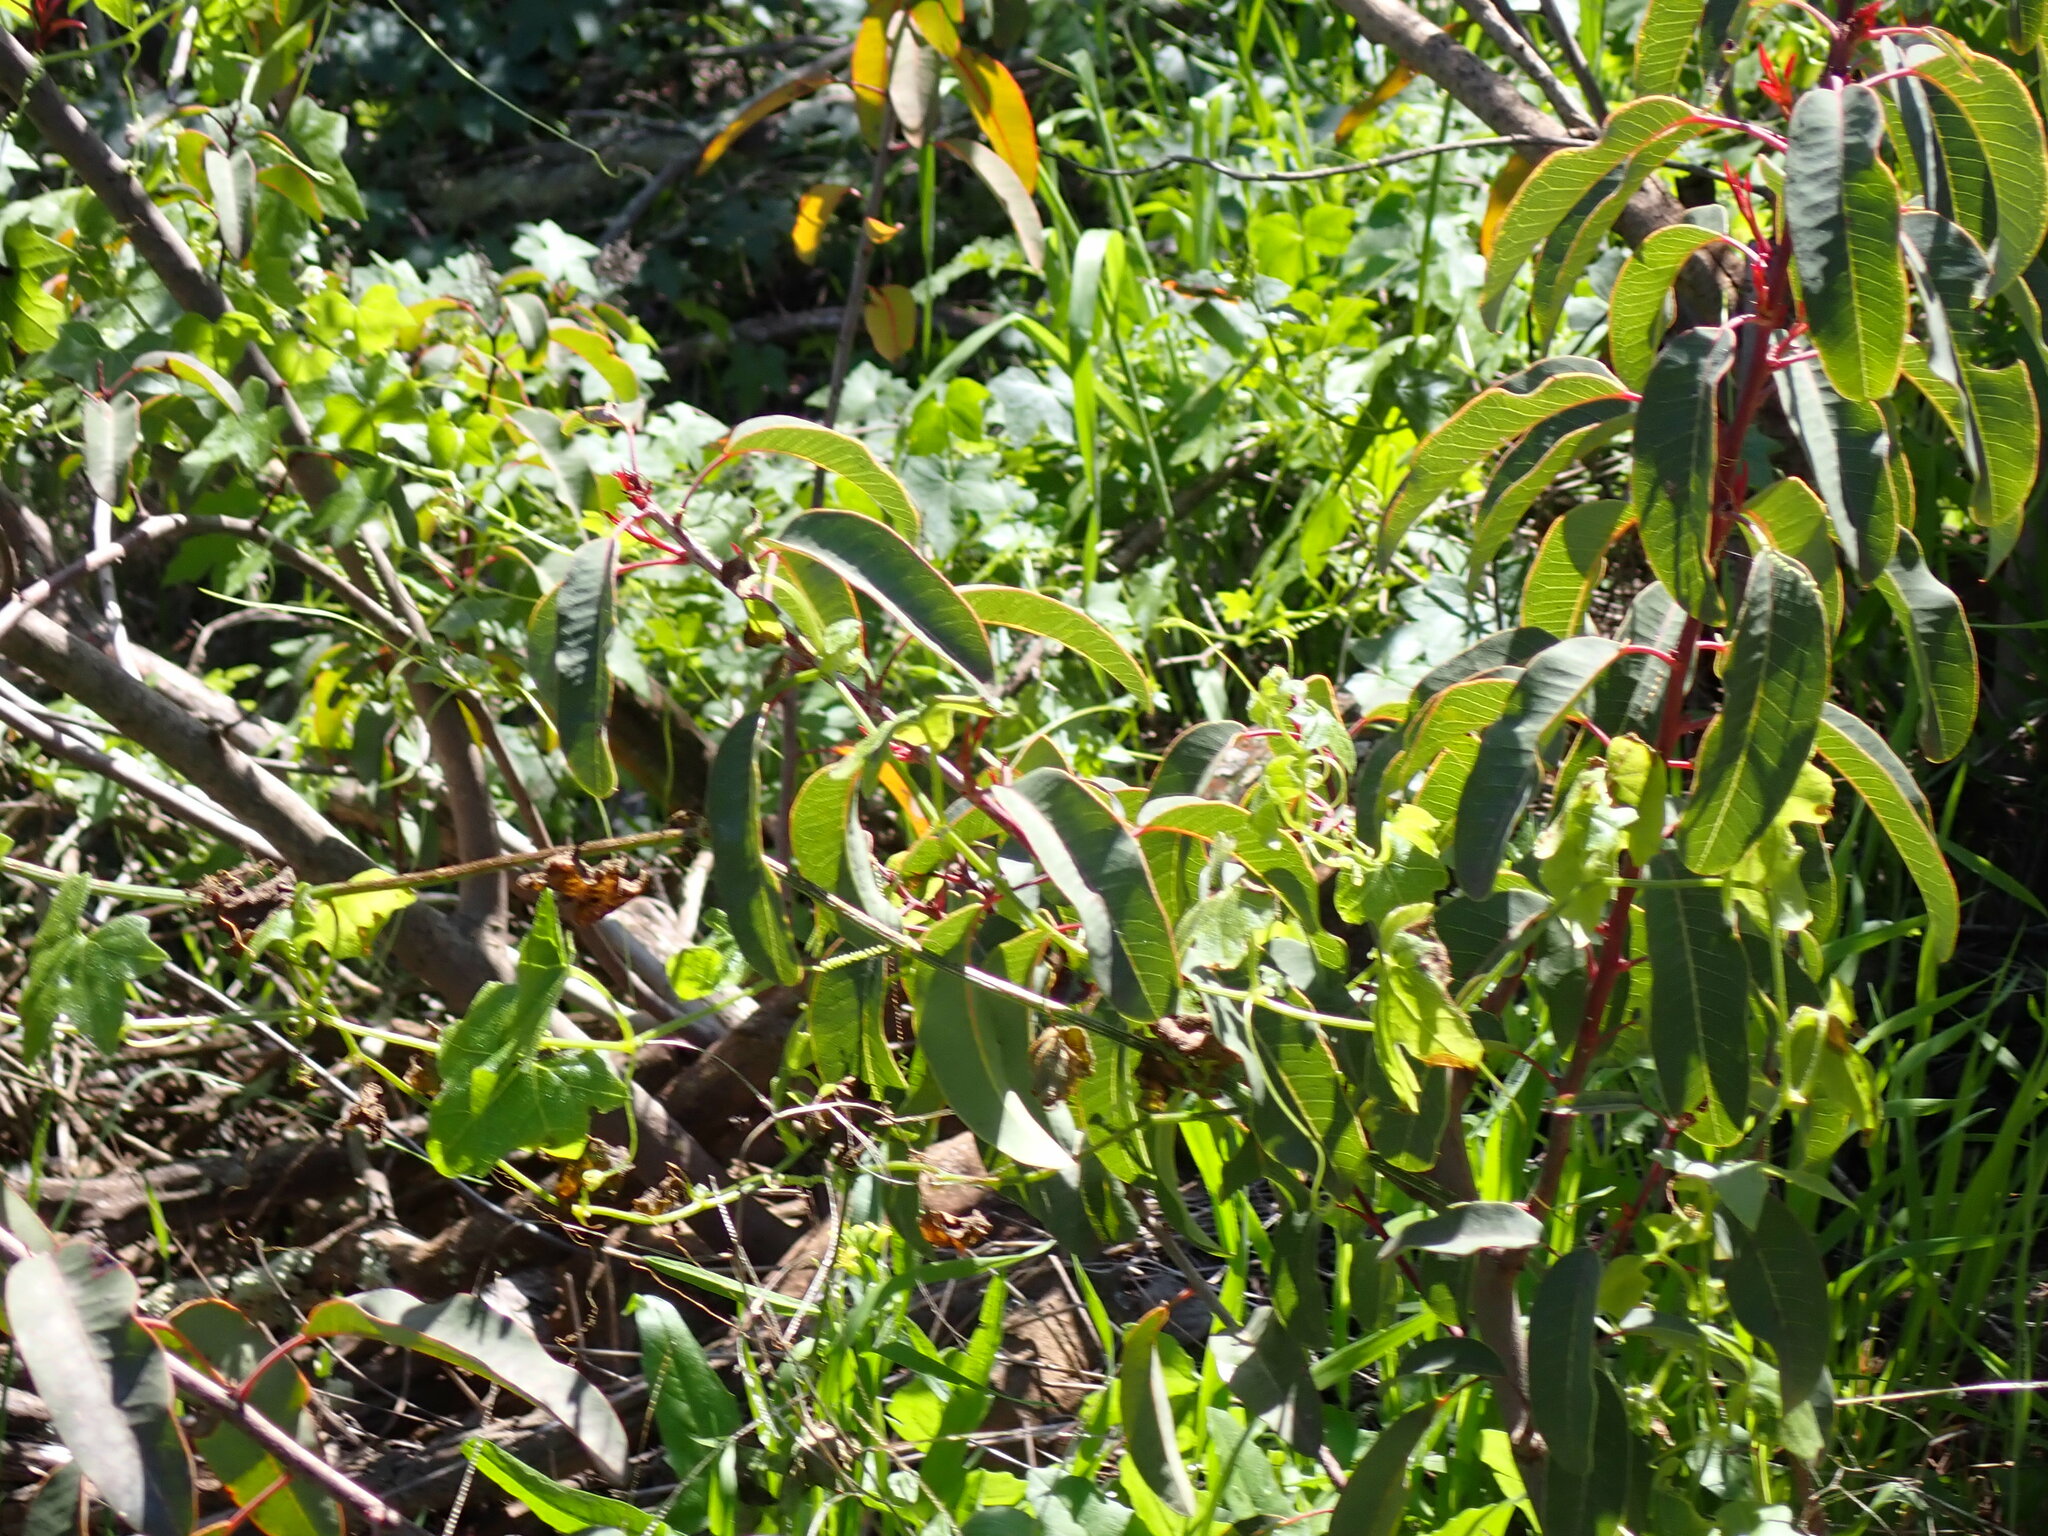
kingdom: Plantae
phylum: Tracheophyta
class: Magnoliopsida
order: Sapindales
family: Anacardiaceae
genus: Malosma
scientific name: Malosma laurina
